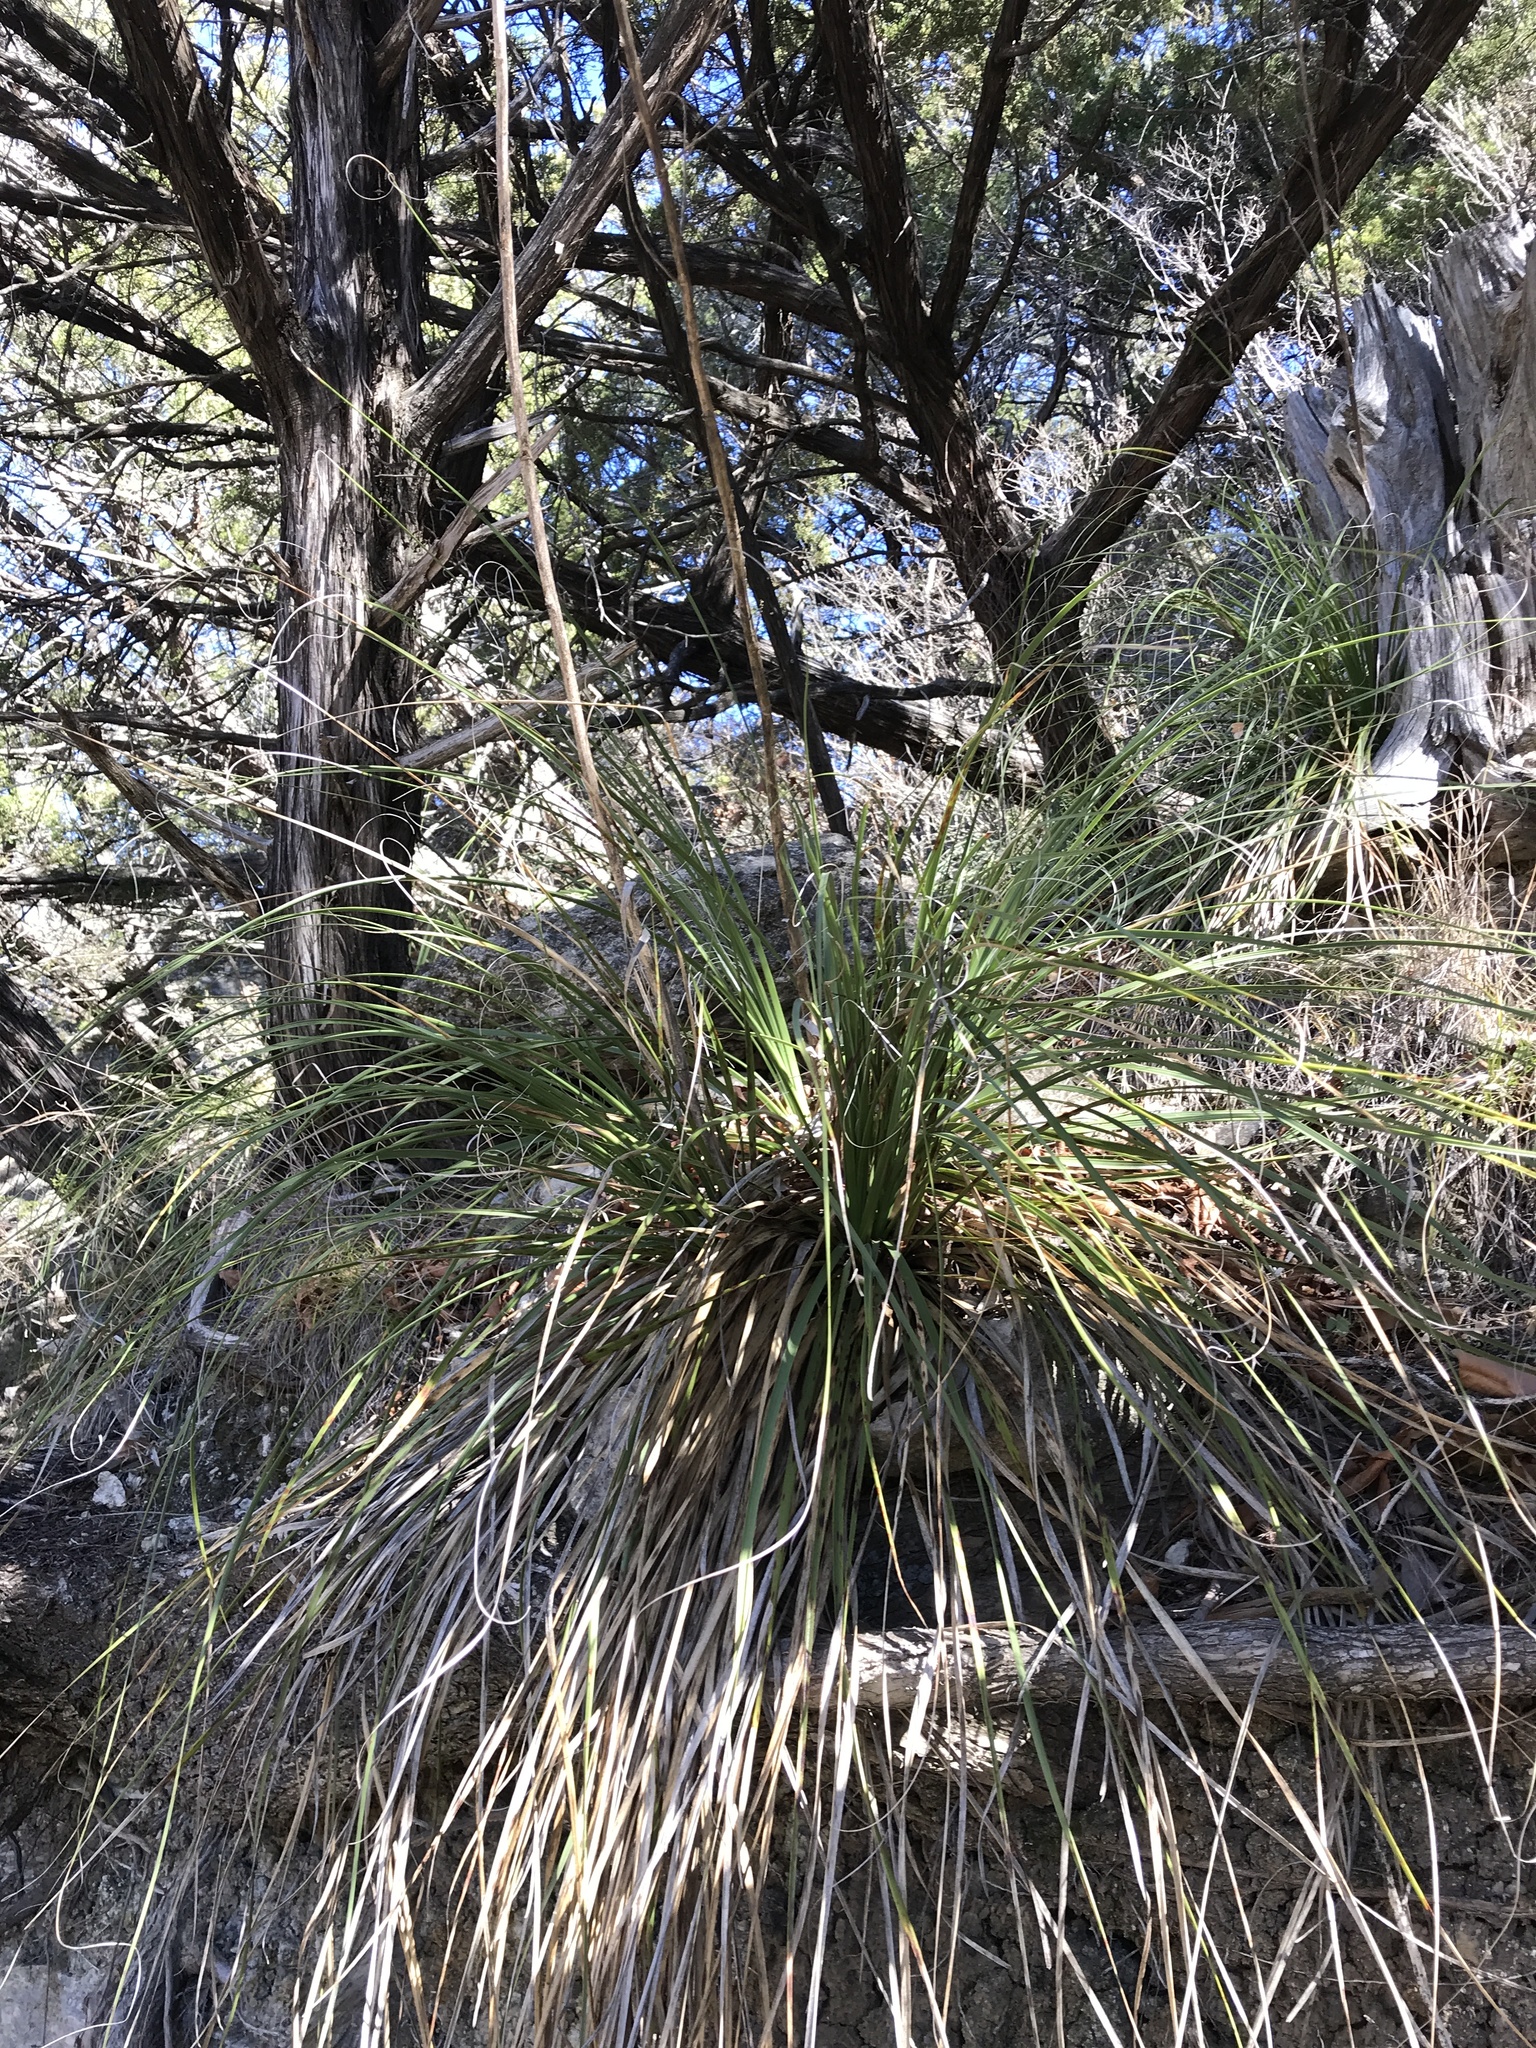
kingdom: Plantae
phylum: Tracheophyta
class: Liliopsida
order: Asparagales
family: Asparagaceae
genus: Nolina
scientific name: Nolina lindheimeriana
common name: Lindheimer's bear-grass
